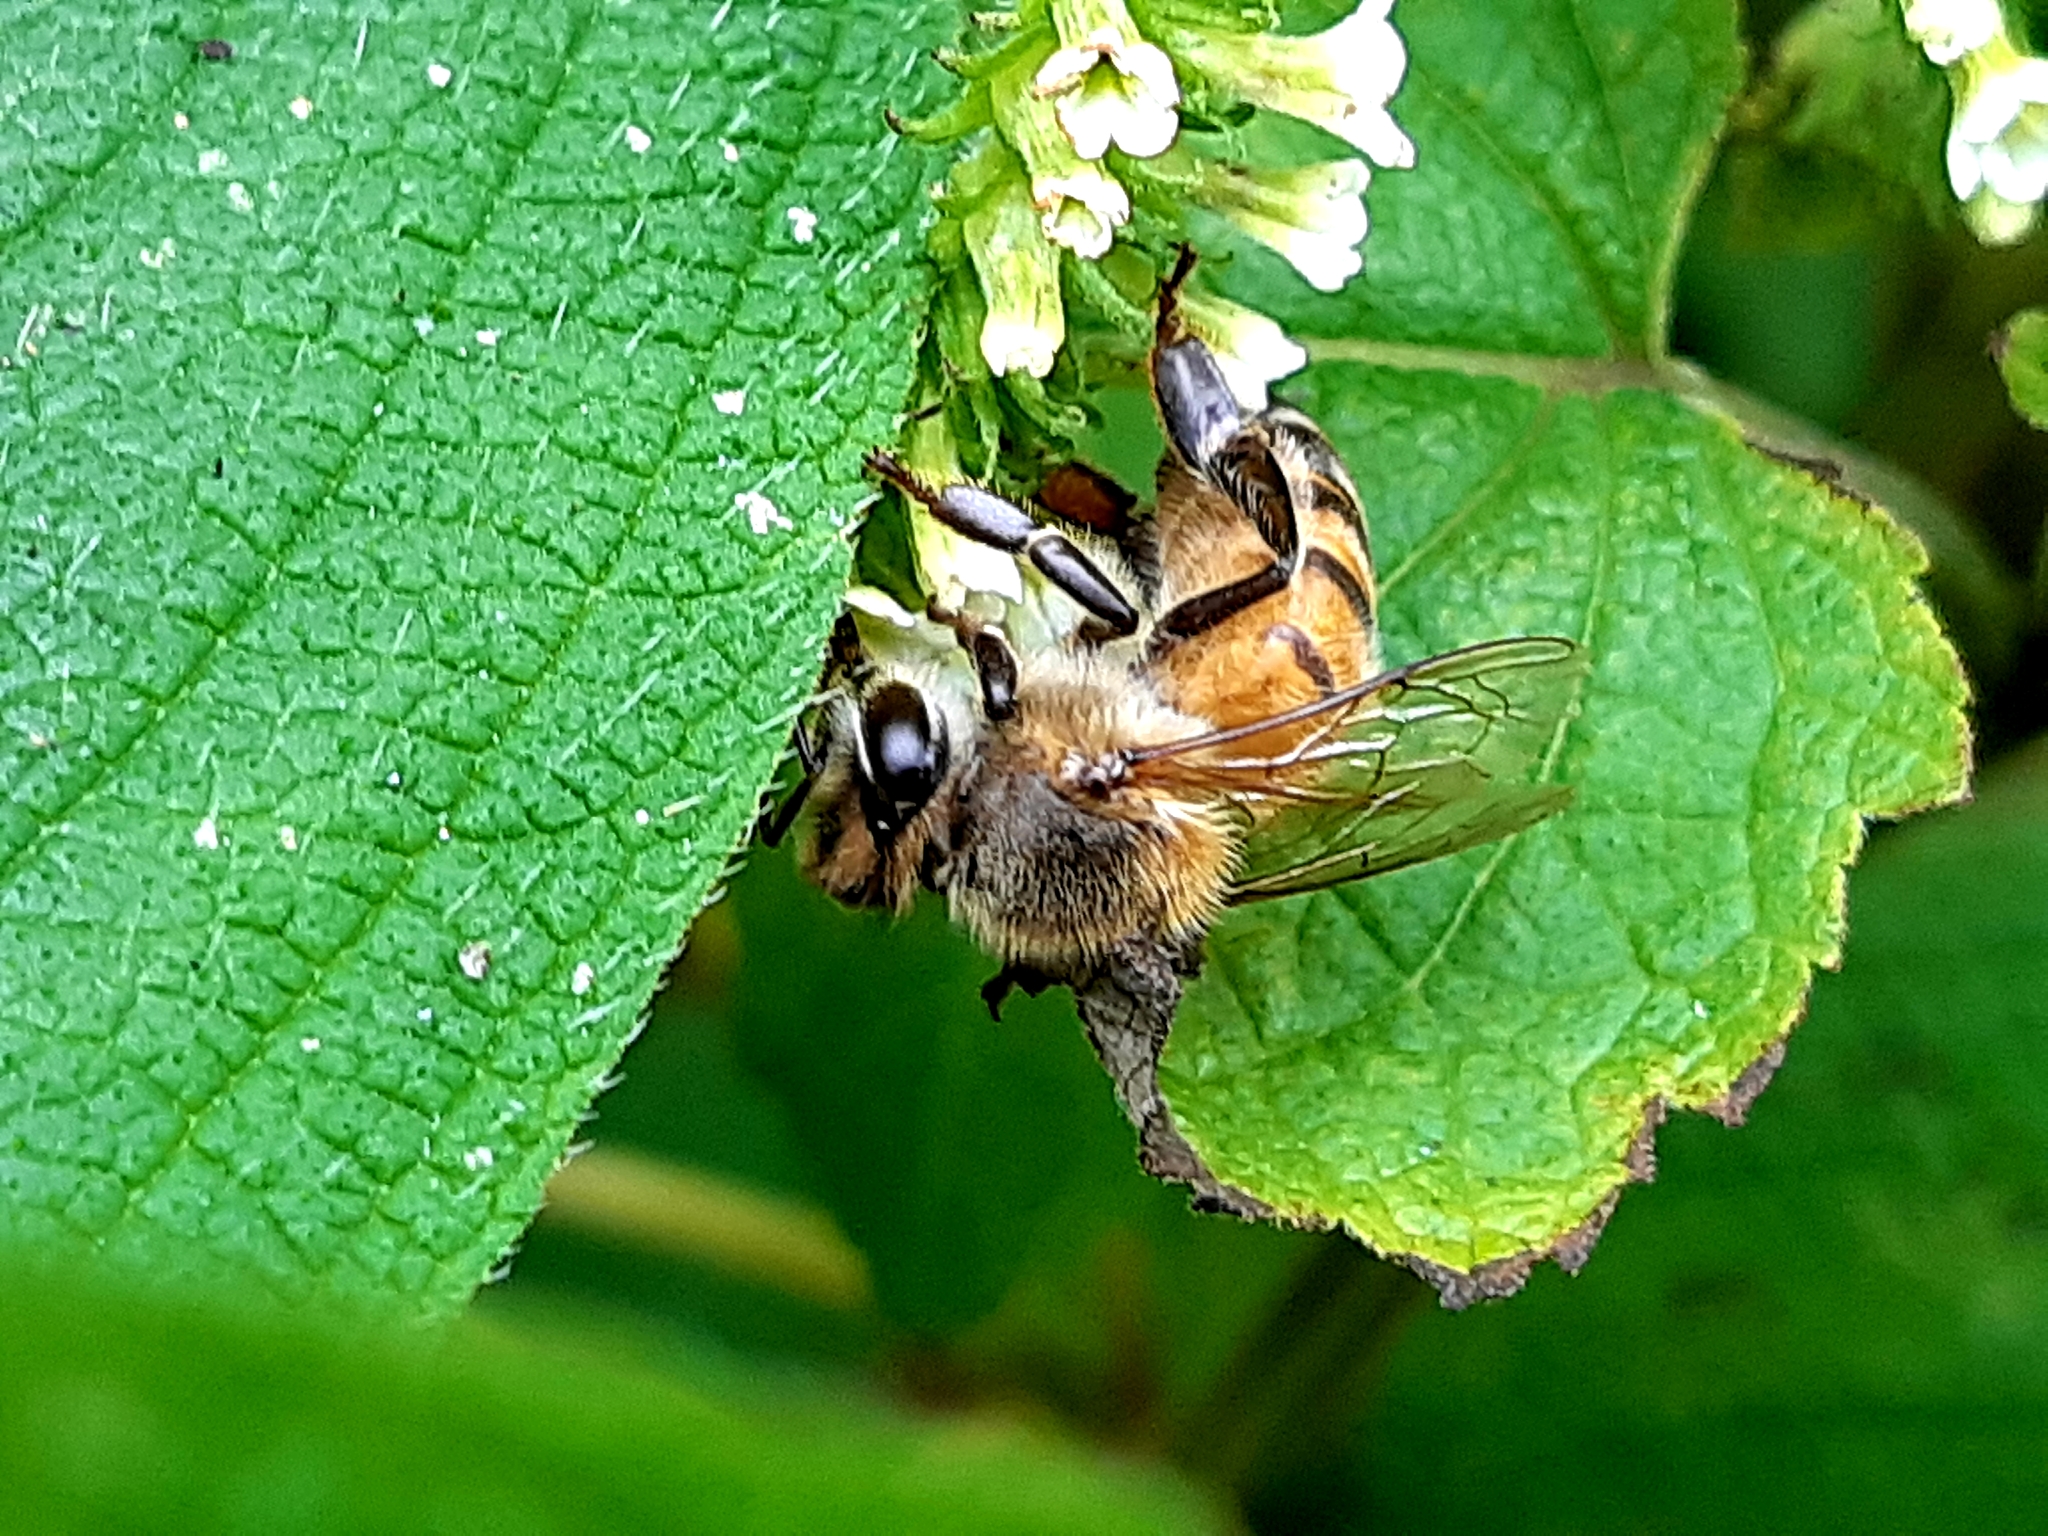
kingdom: Animalia
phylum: Arthropoda
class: Insecta
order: Hymenoptera
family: Apidae
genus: Apis
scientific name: Apis mellifera
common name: Honey bee
